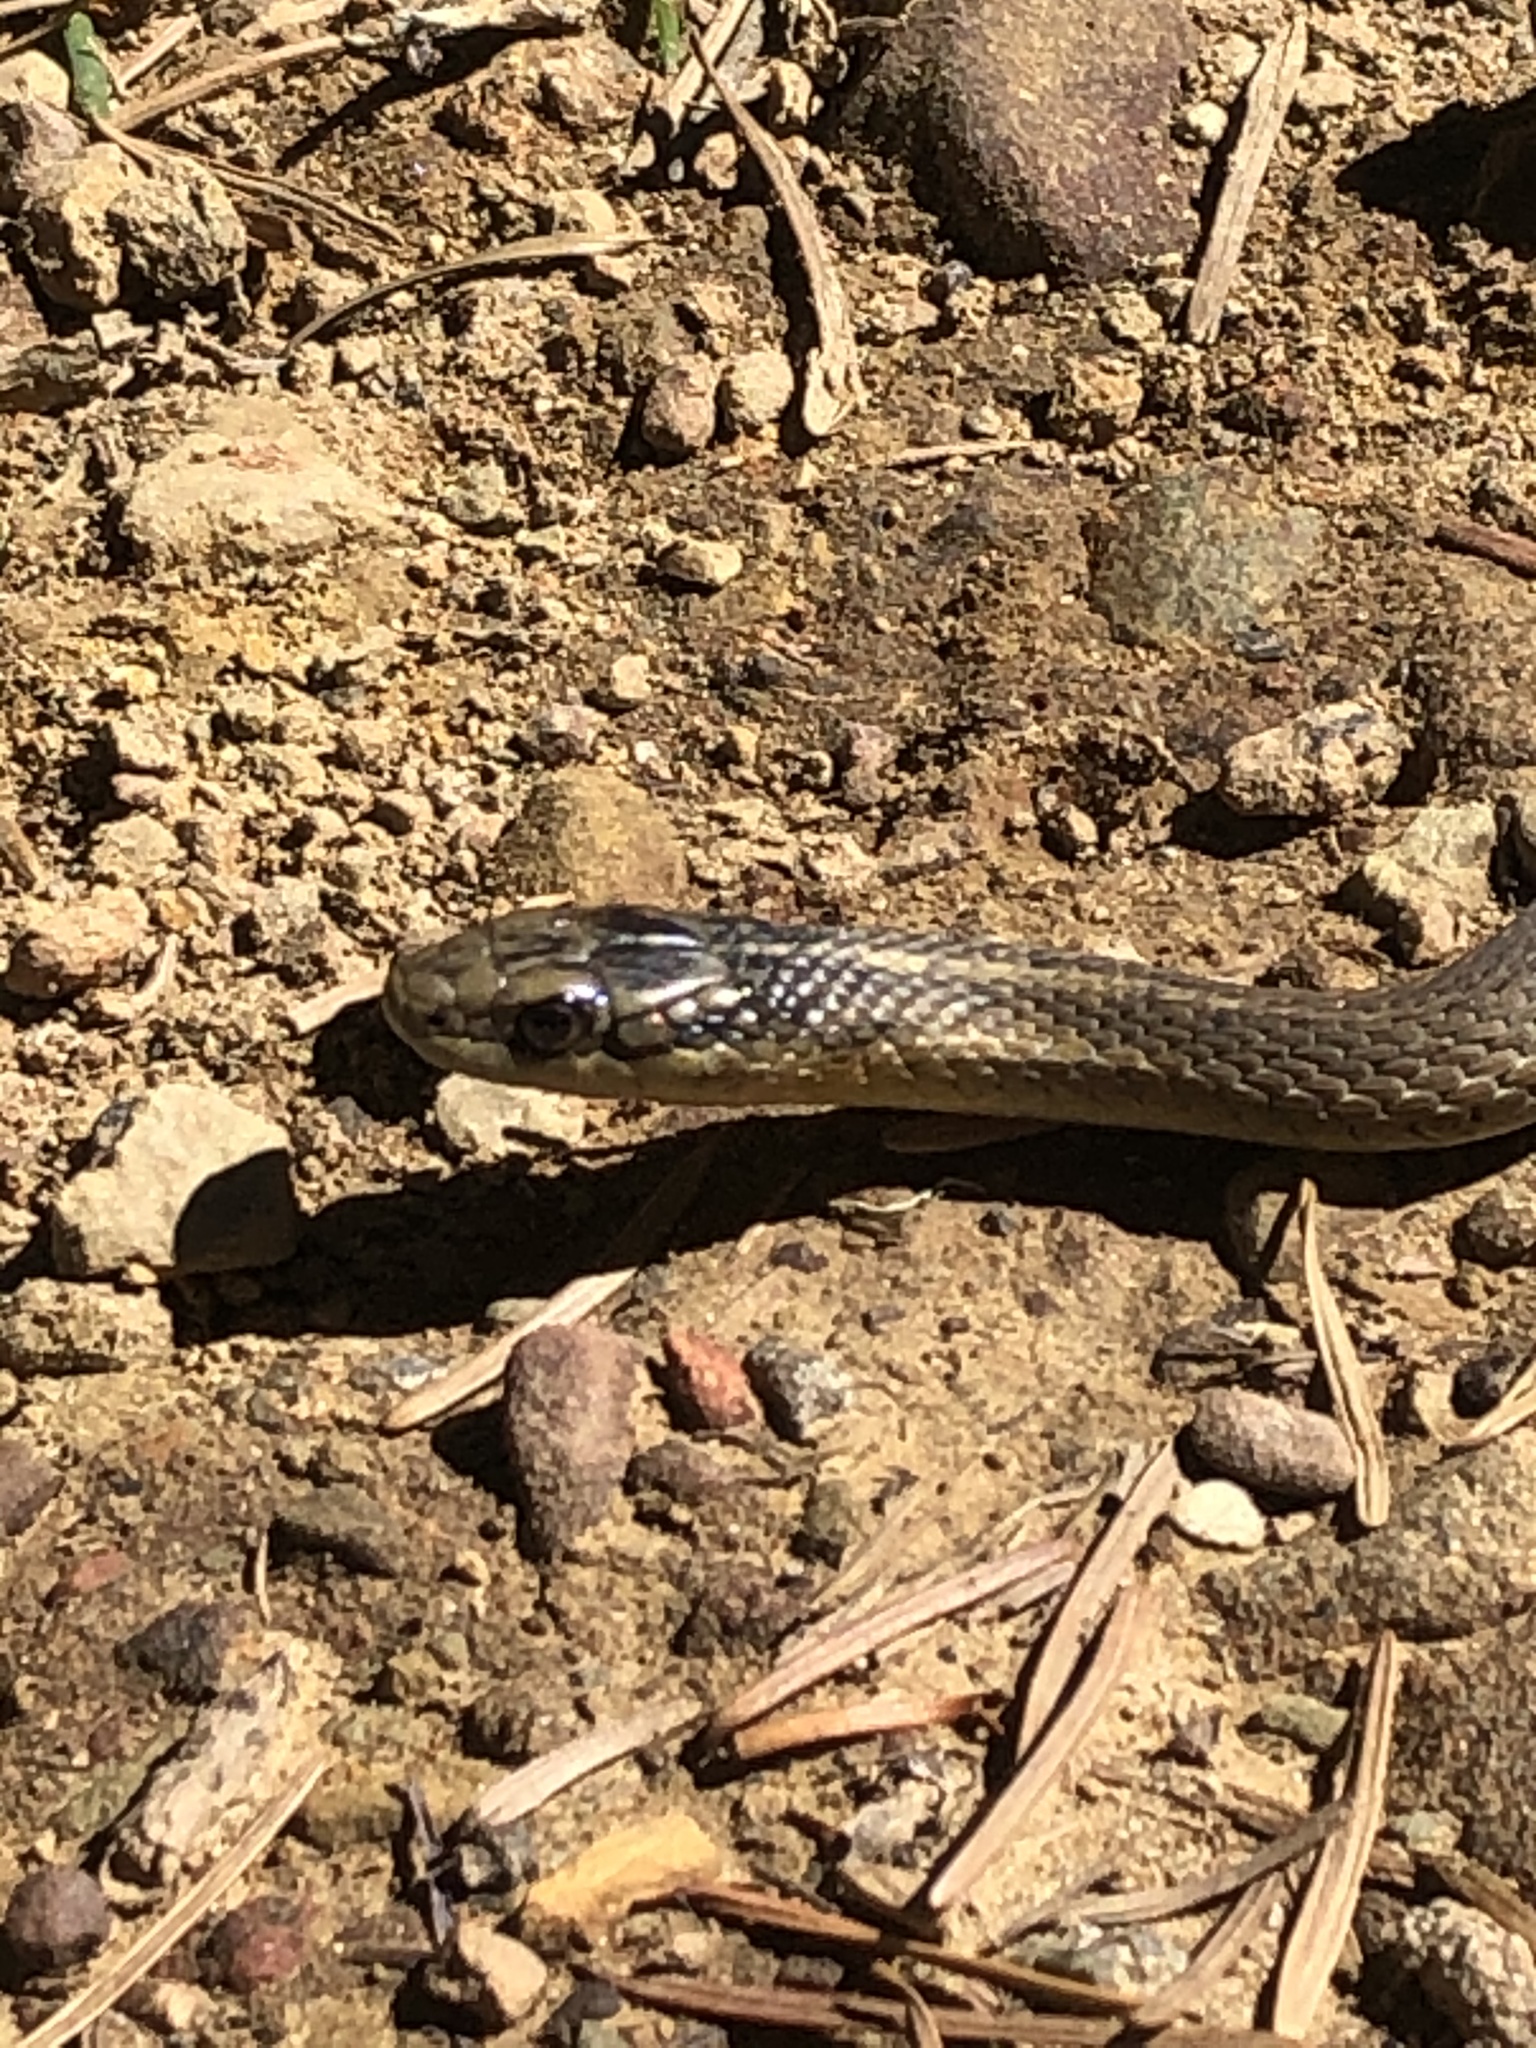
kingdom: Animalia
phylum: Chordata
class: Squamata
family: Colubridae
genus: Thamnophis
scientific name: Thamnophis ordinoides
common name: Northwestern garter snake
